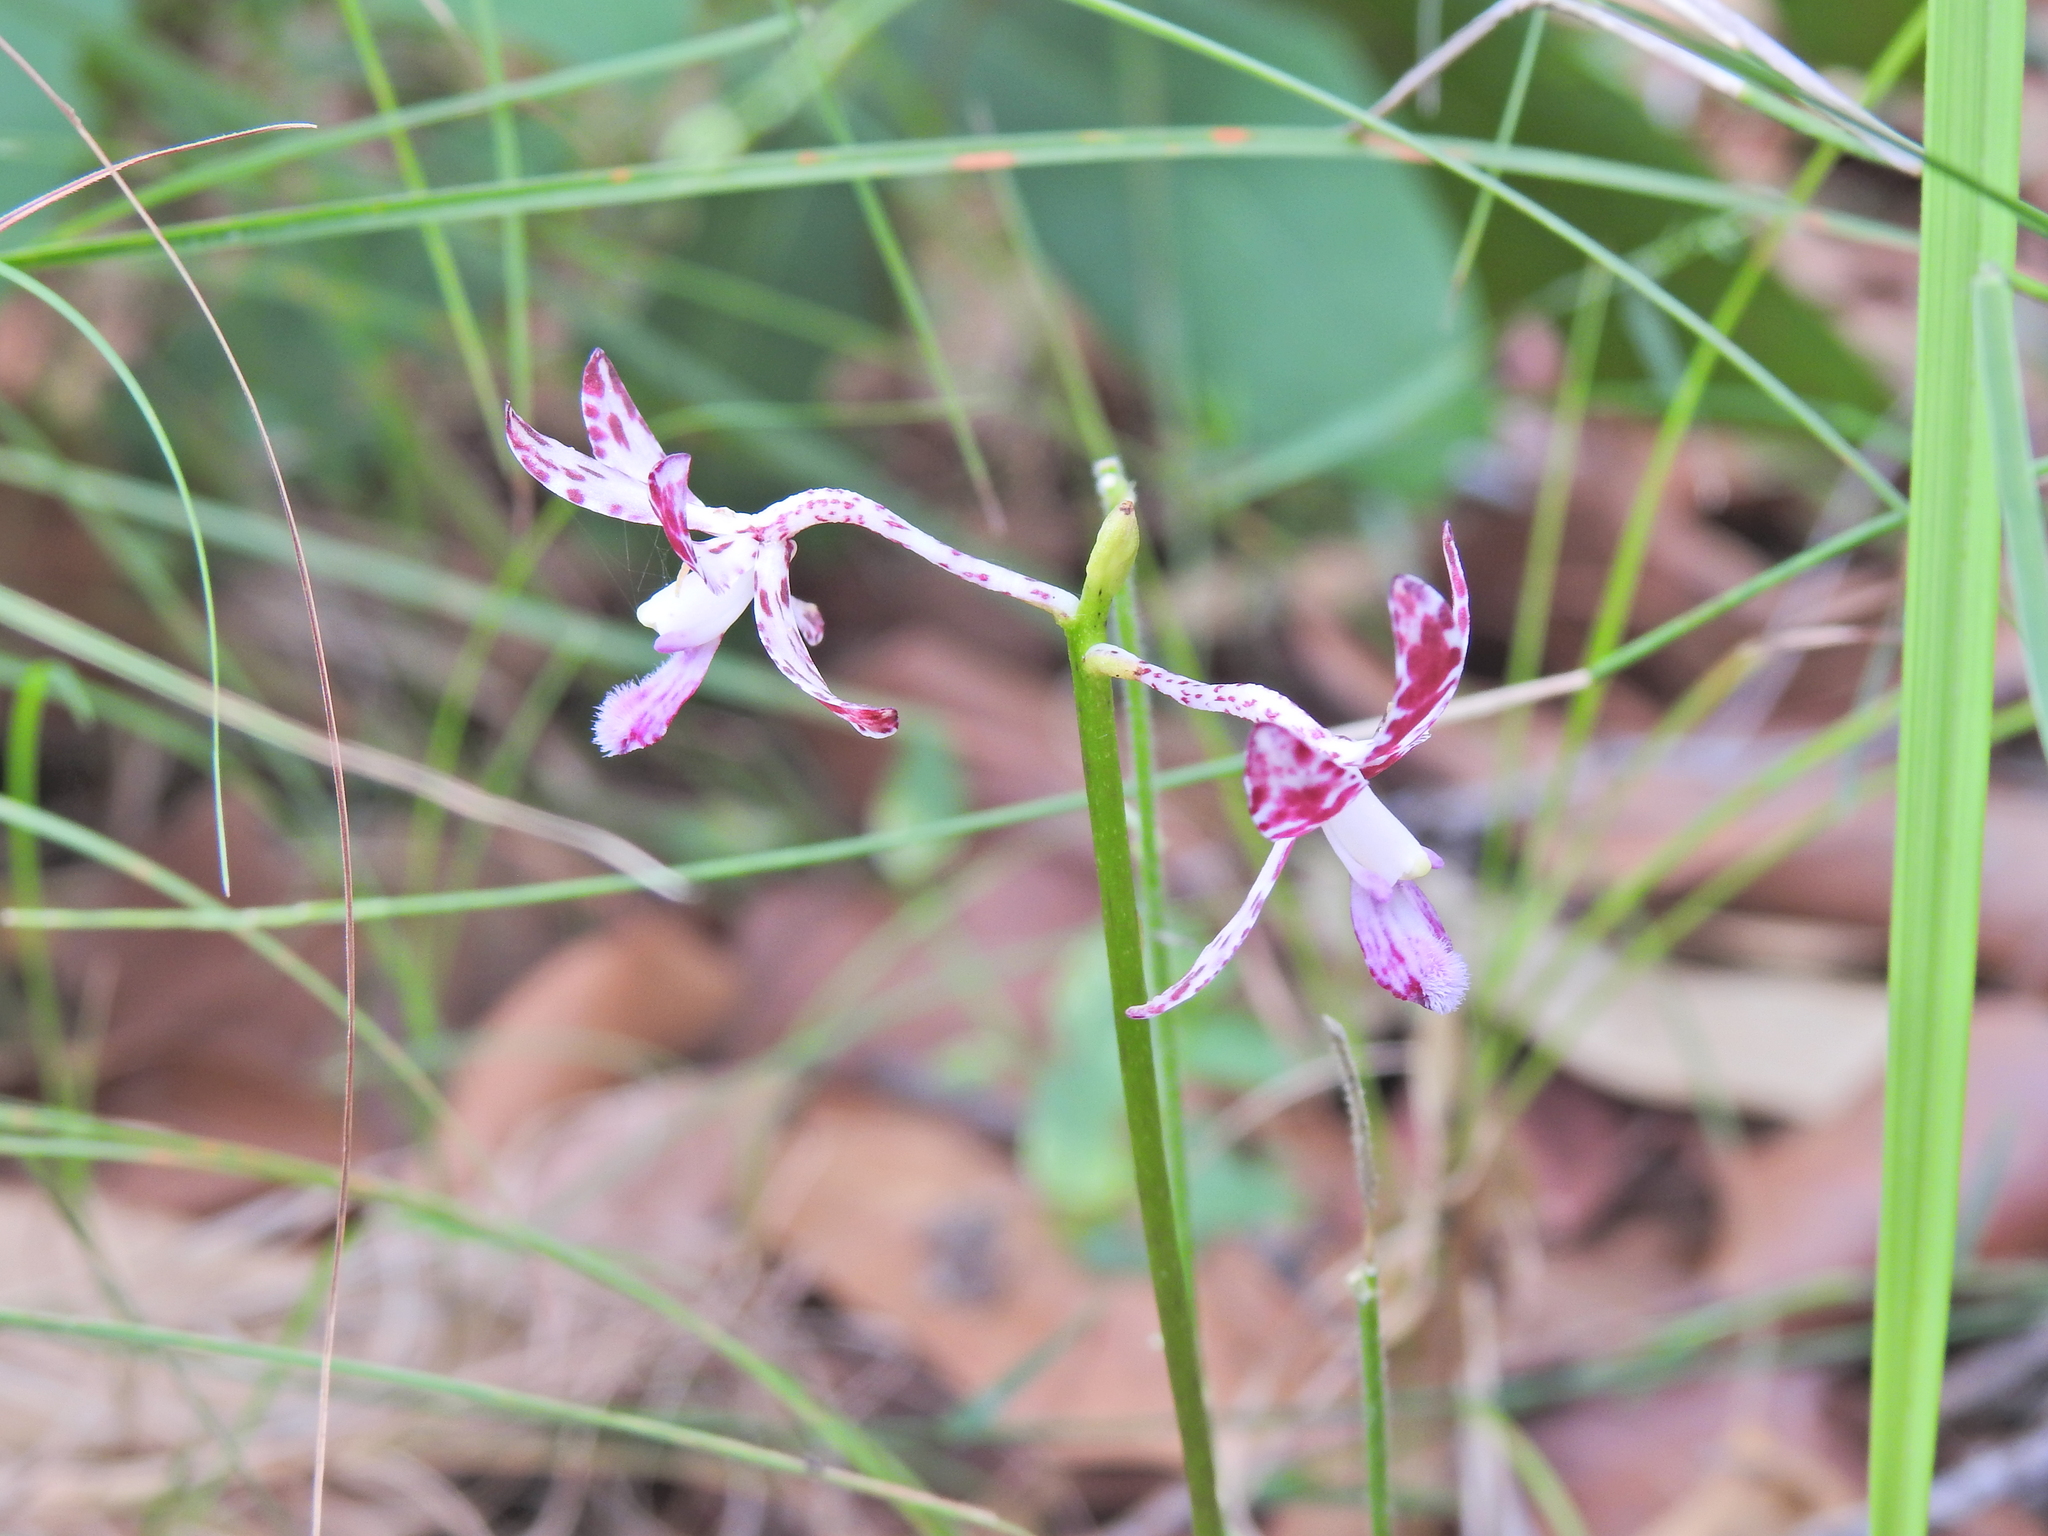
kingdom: Plantae
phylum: Tracheophyta
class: Liliopsida
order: Asparagales
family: Orchidaceae
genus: Dipodium
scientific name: Dipodium variegatum
